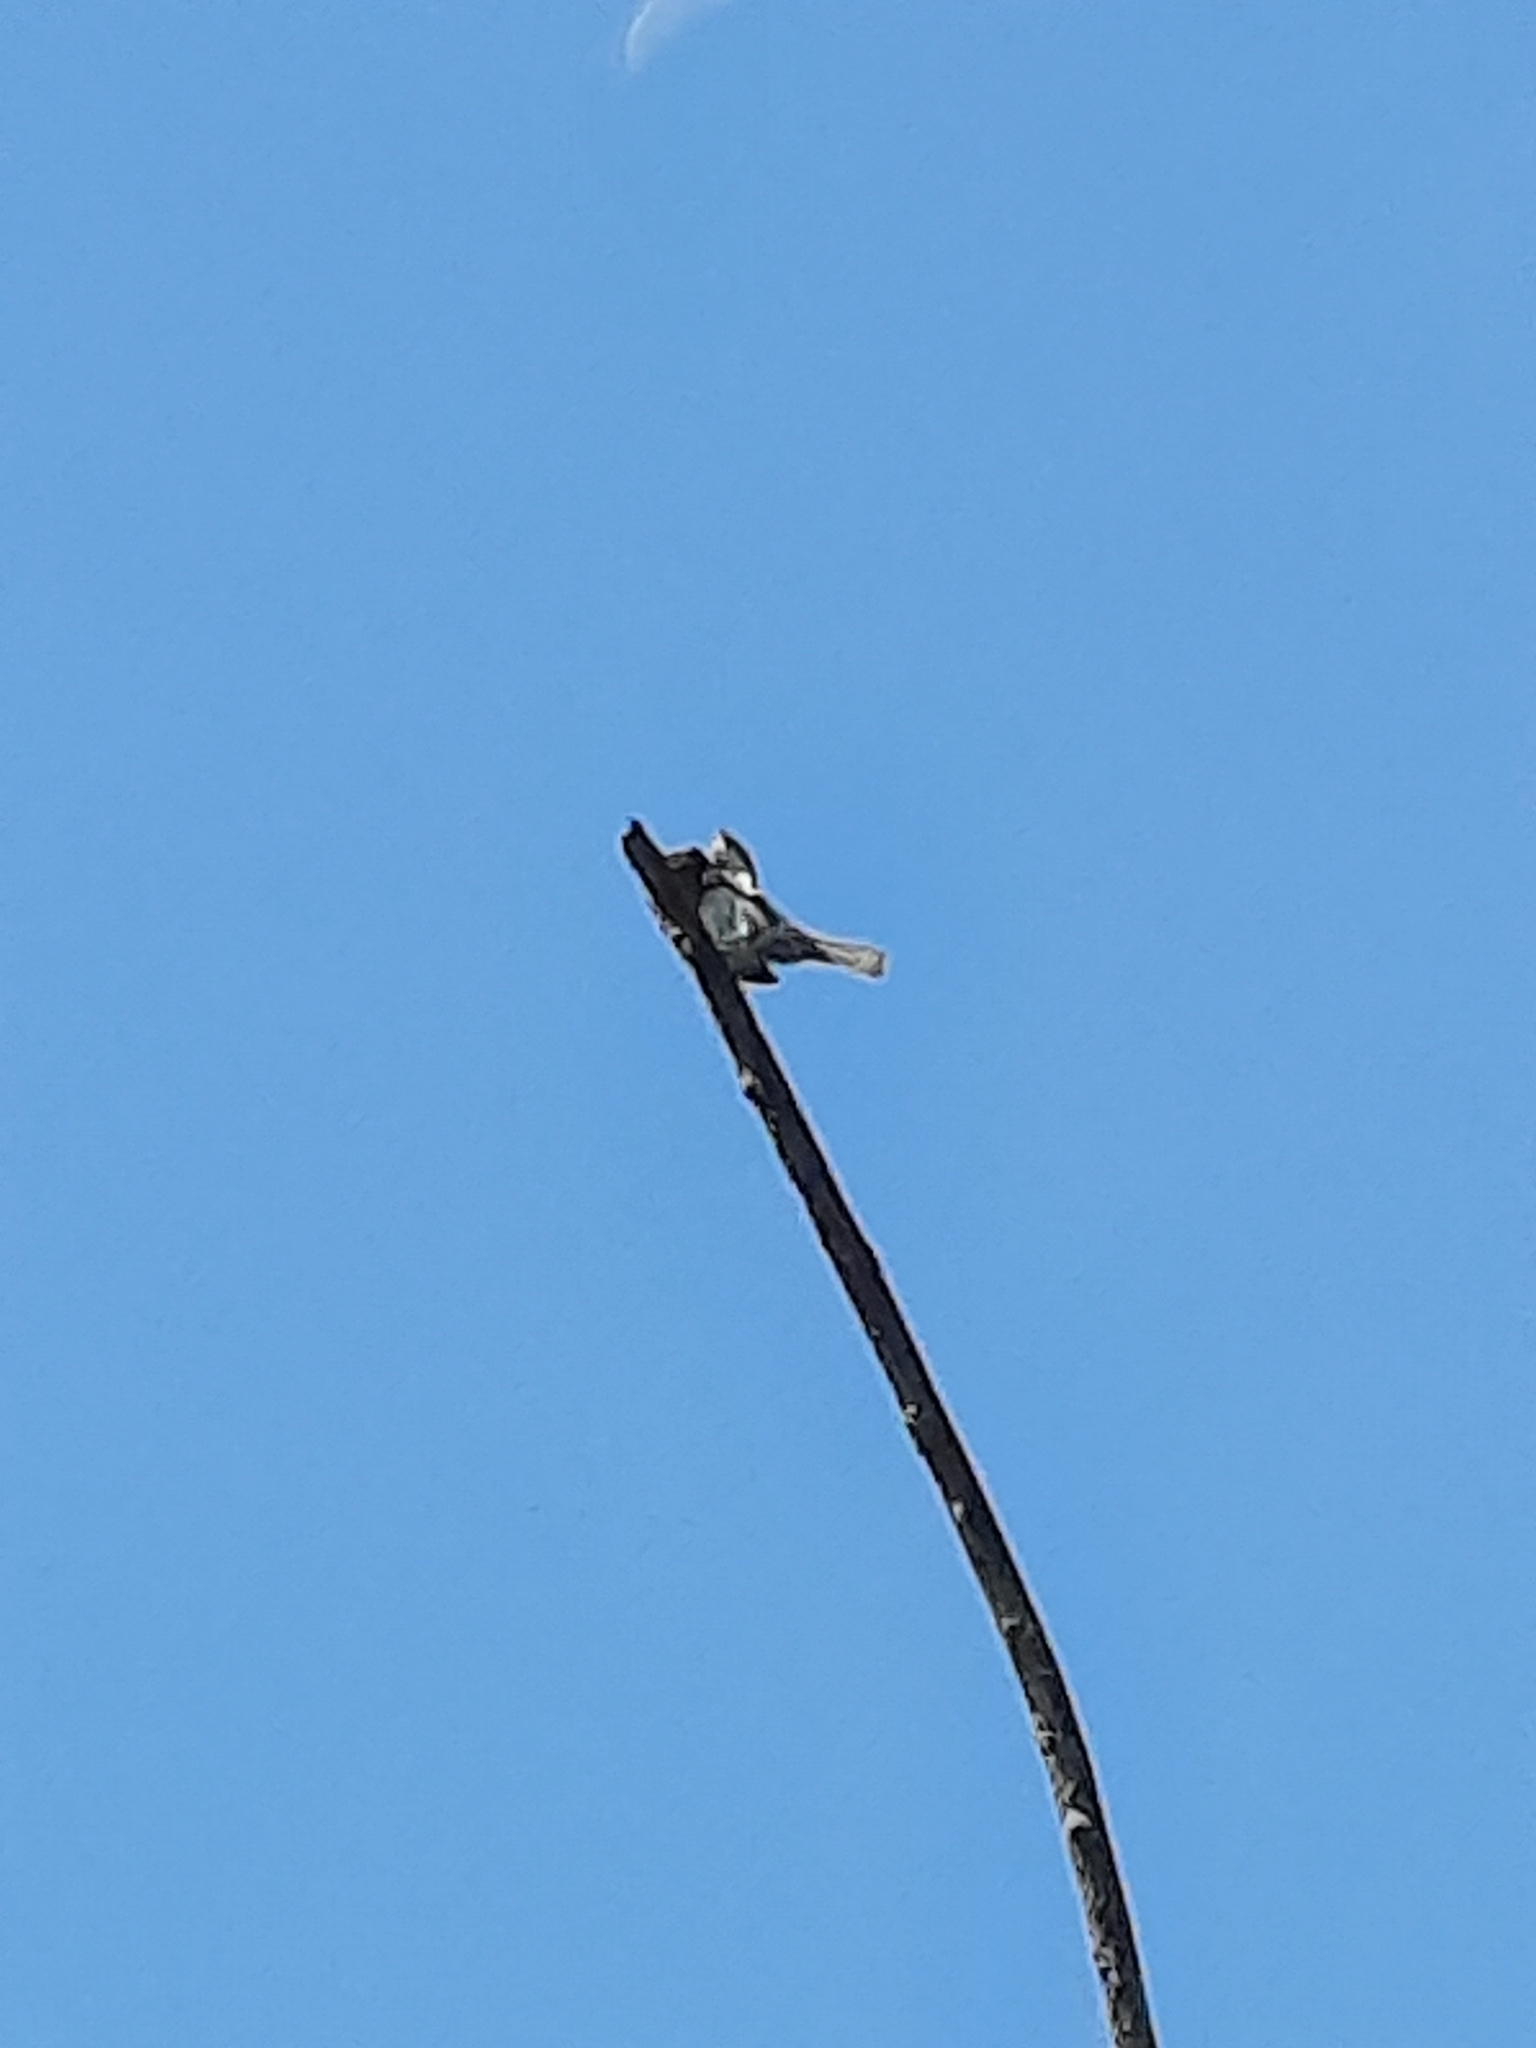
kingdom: Animalia
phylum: Chordata
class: Aves
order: Passeriformes
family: Passerellidae
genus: Melospiza
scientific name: Melospiza melodia
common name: Song sparrow
